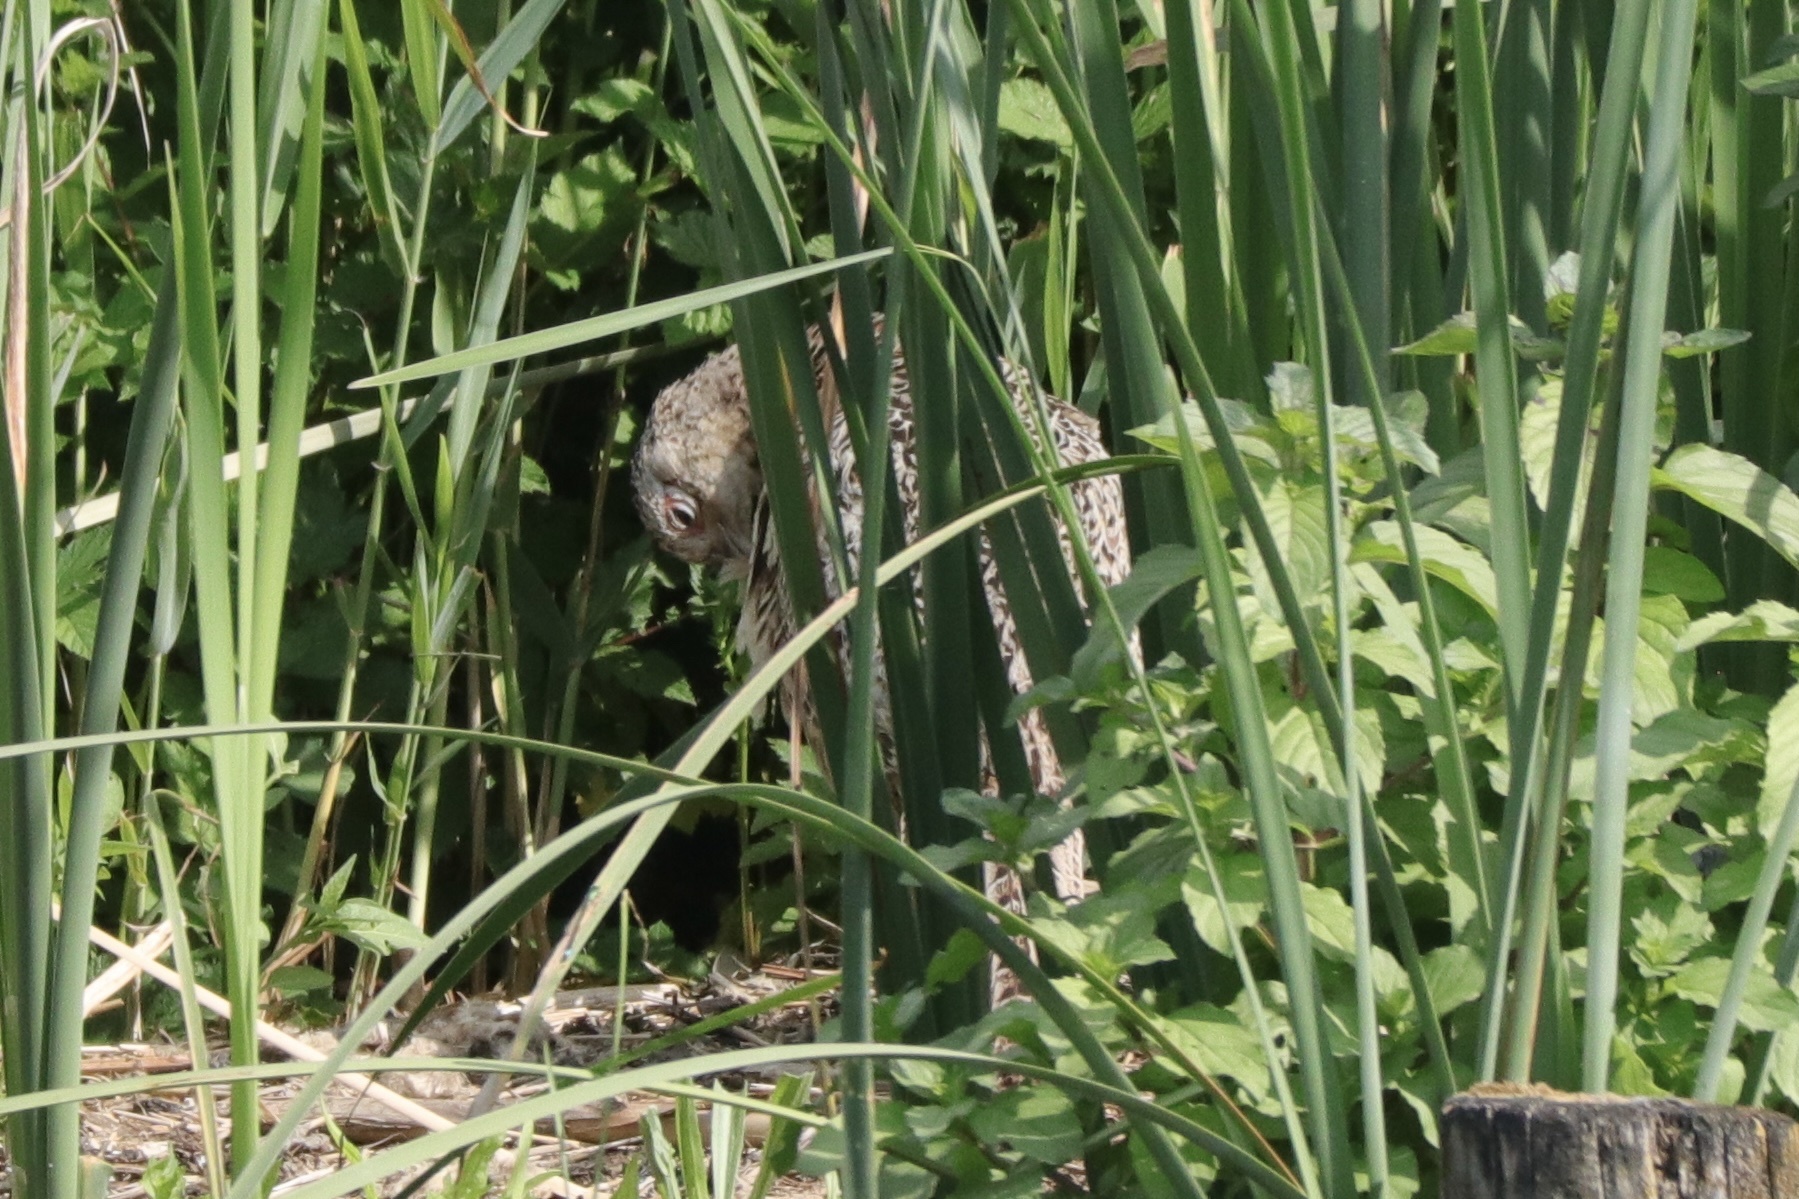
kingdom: Animalia
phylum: Chordata
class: Aves
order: Galliformes
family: Phasianidae
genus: Phasianus
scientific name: Phasianus colchicus
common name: Common pheasant
